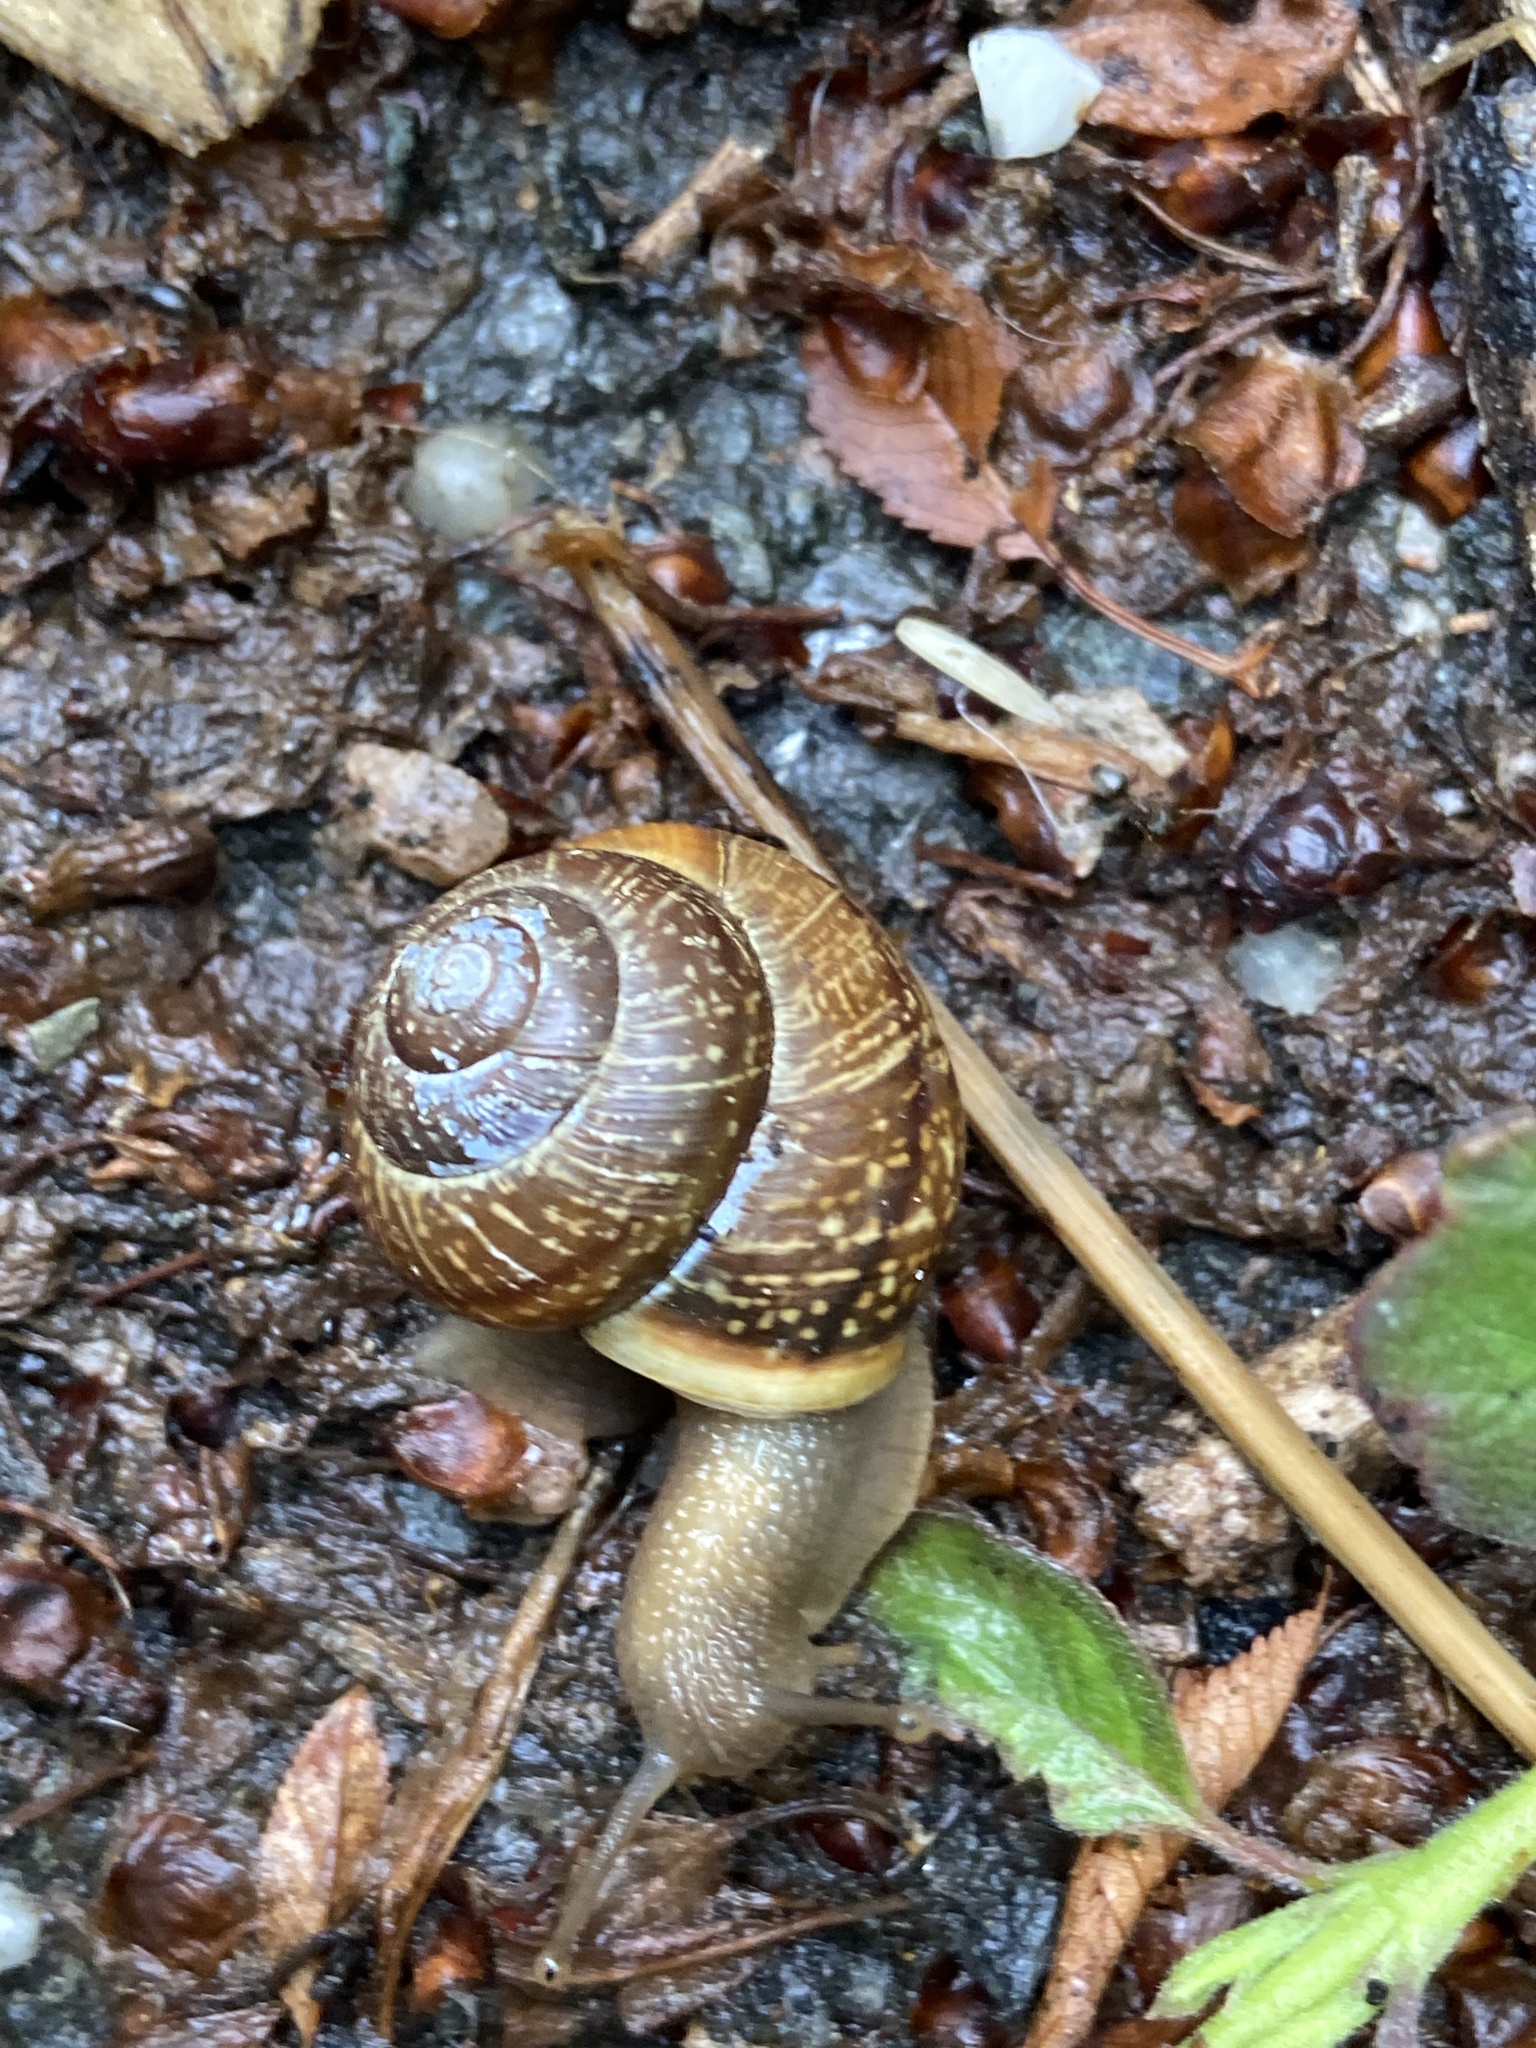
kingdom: Animalia
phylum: Mollusca
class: Gastropoda
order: Stylommatophora
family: Helicidae
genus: Arianta
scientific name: Arianta arbustorum
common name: Copse snail
